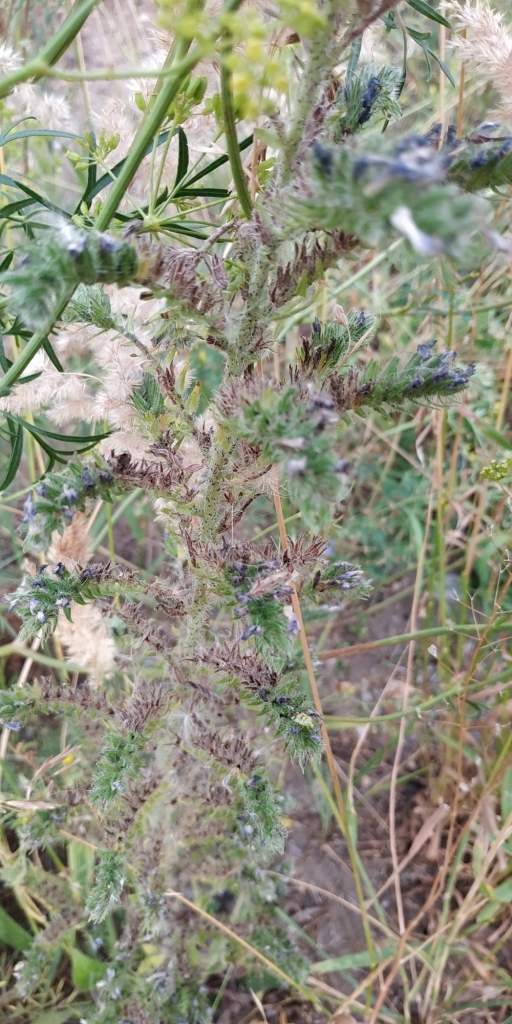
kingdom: Plantae
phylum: Tracheophyta
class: Magnoliopsida
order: Boraginales
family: Boraginaceae
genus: Echium
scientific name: Echium vulgare
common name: Common viper's bugloss
